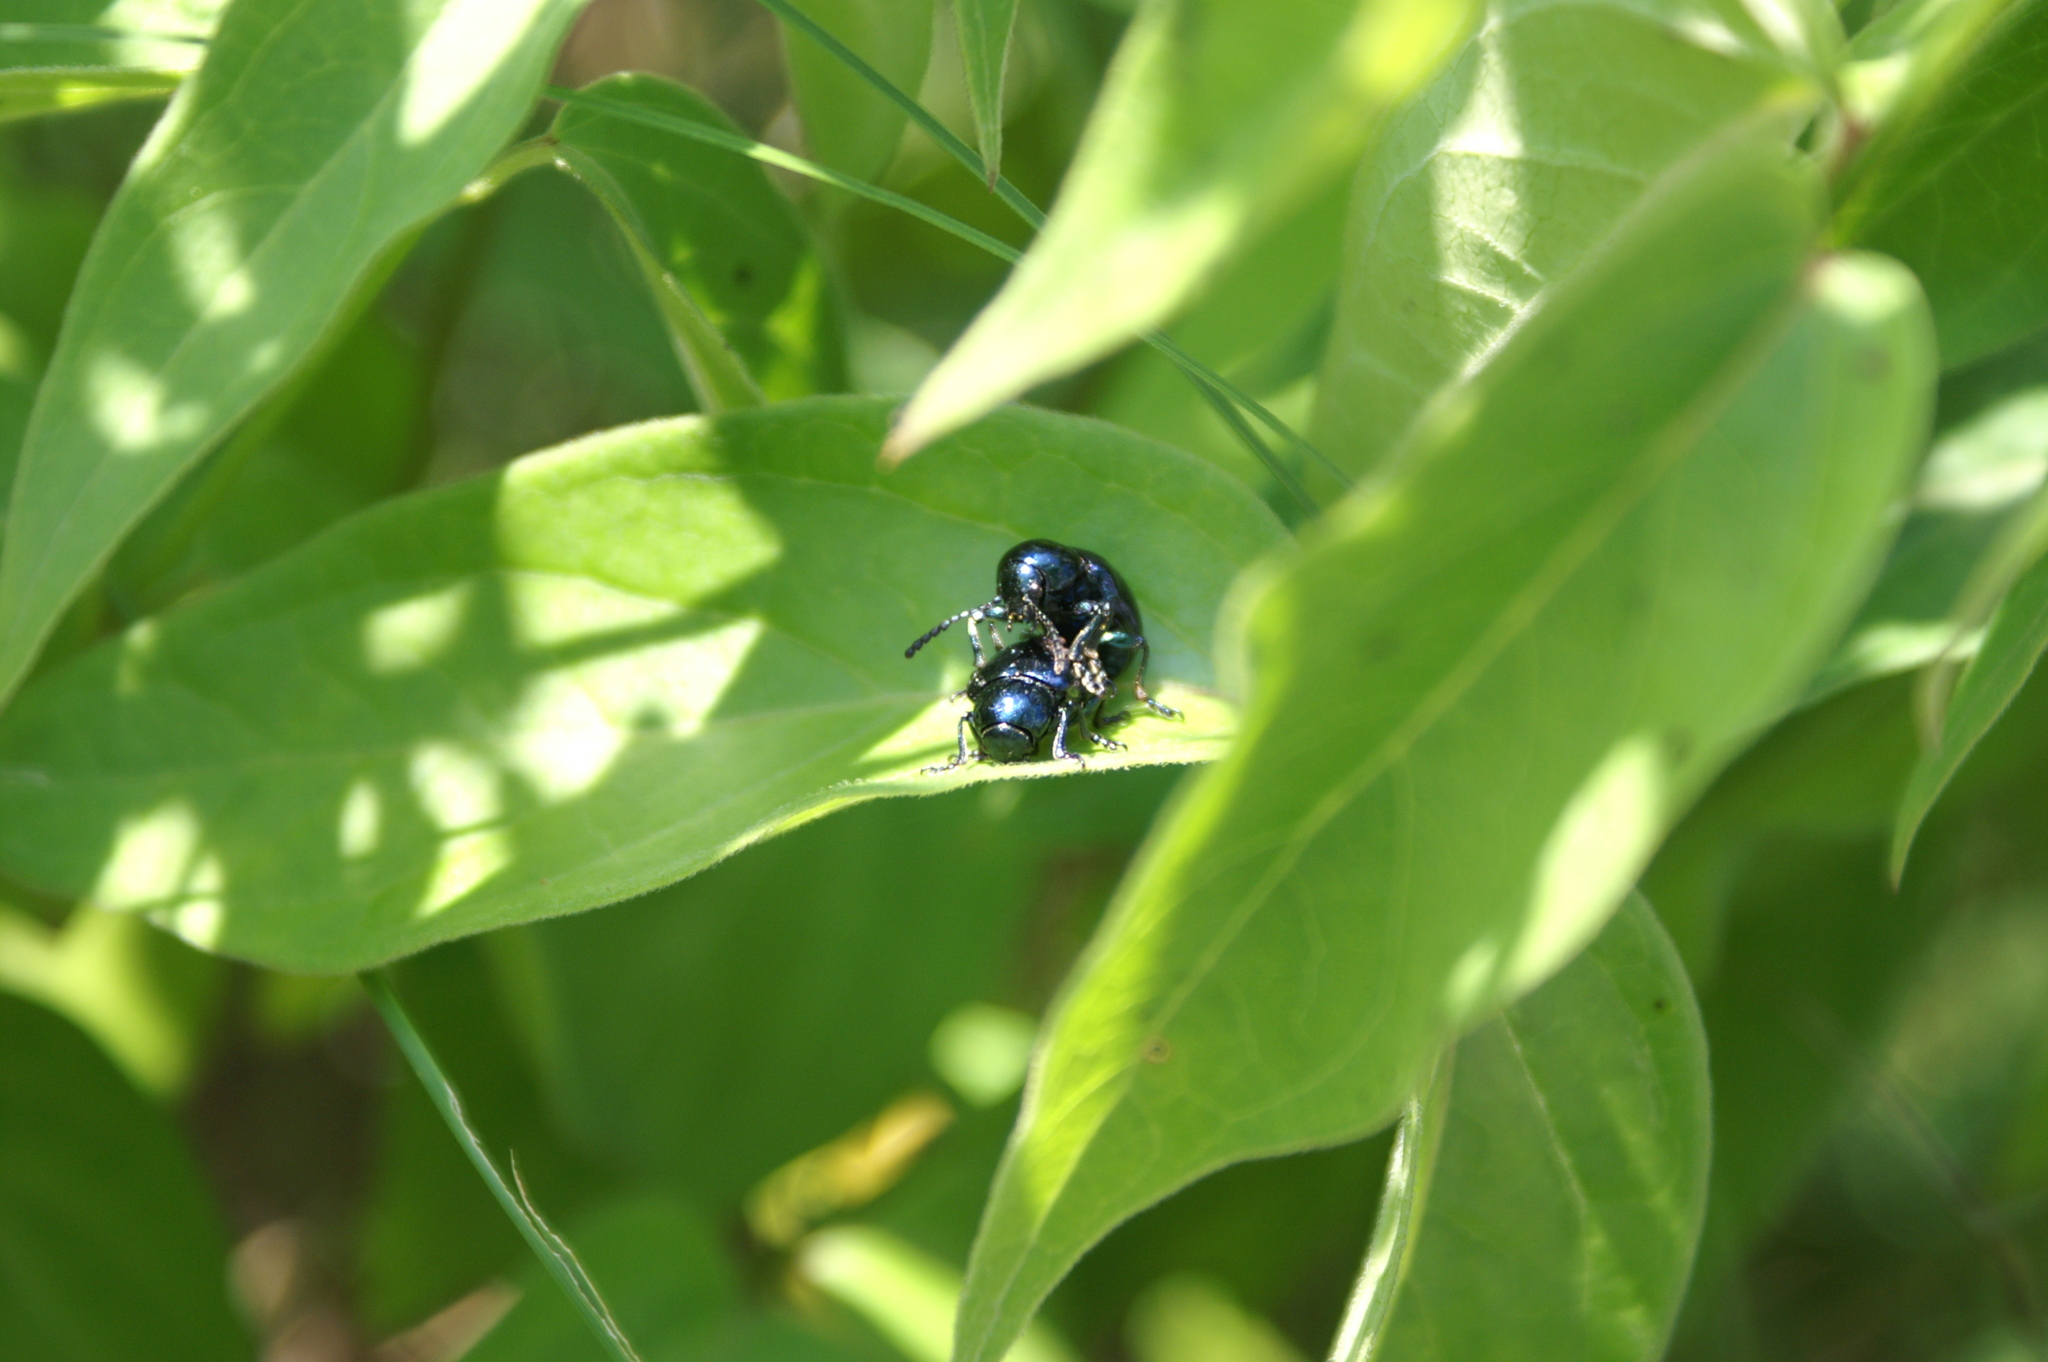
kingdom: Animalia
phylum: Arthropoda
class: Insecta
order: Coleoptera
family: Chrysomelidae
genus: Chrysochus
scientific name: Chrysochus asclepiadeus
